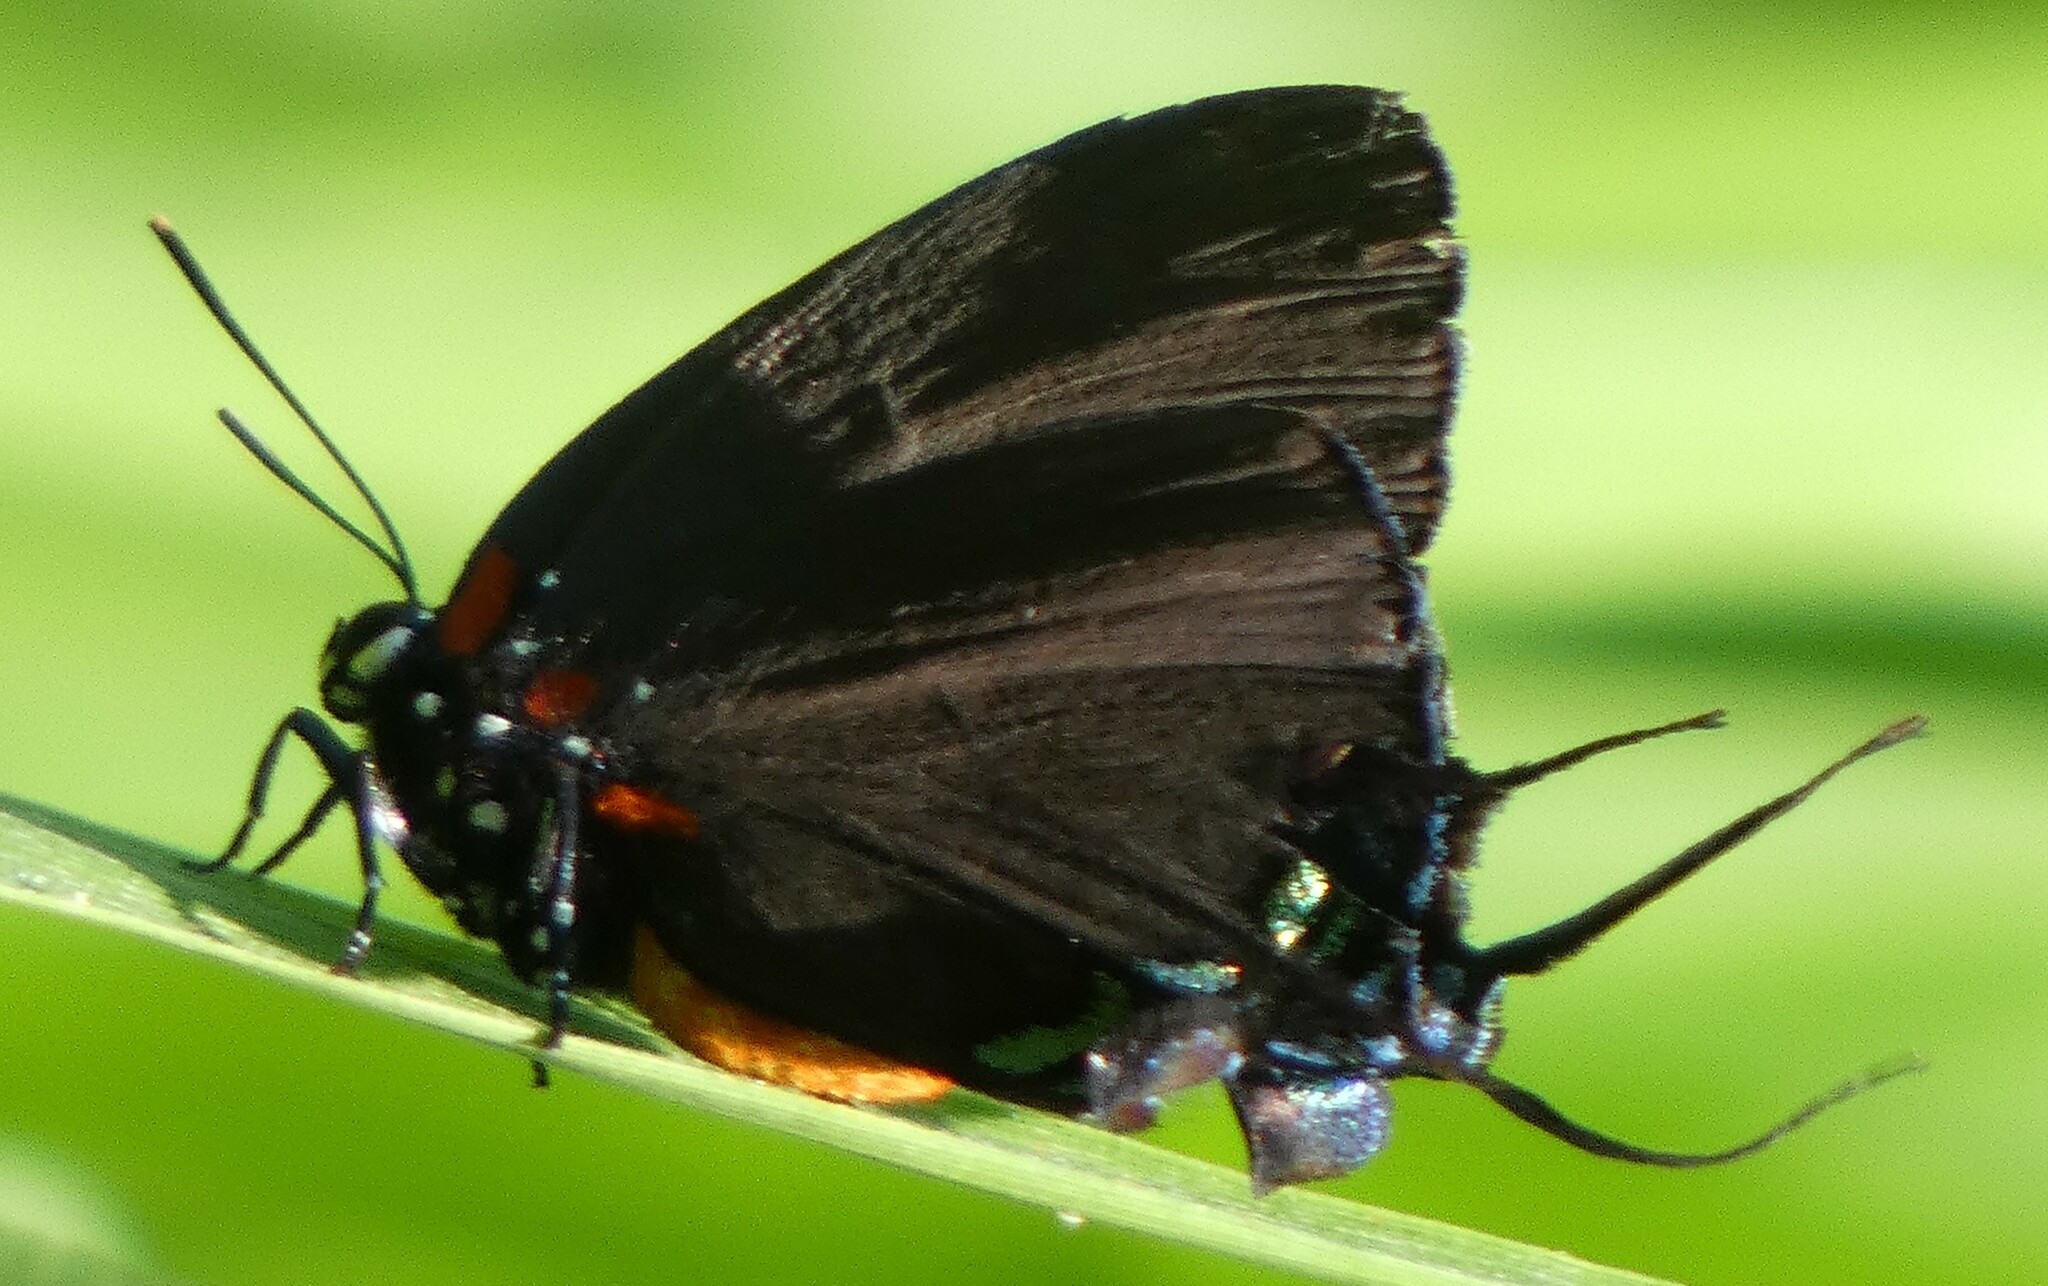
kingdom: Animalia
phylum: Arthropoda
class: Insecta
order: Lepidoptera
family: Lycaenidae
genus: Atlides
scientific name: Atlides halesus
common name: Great purple hairstreak
